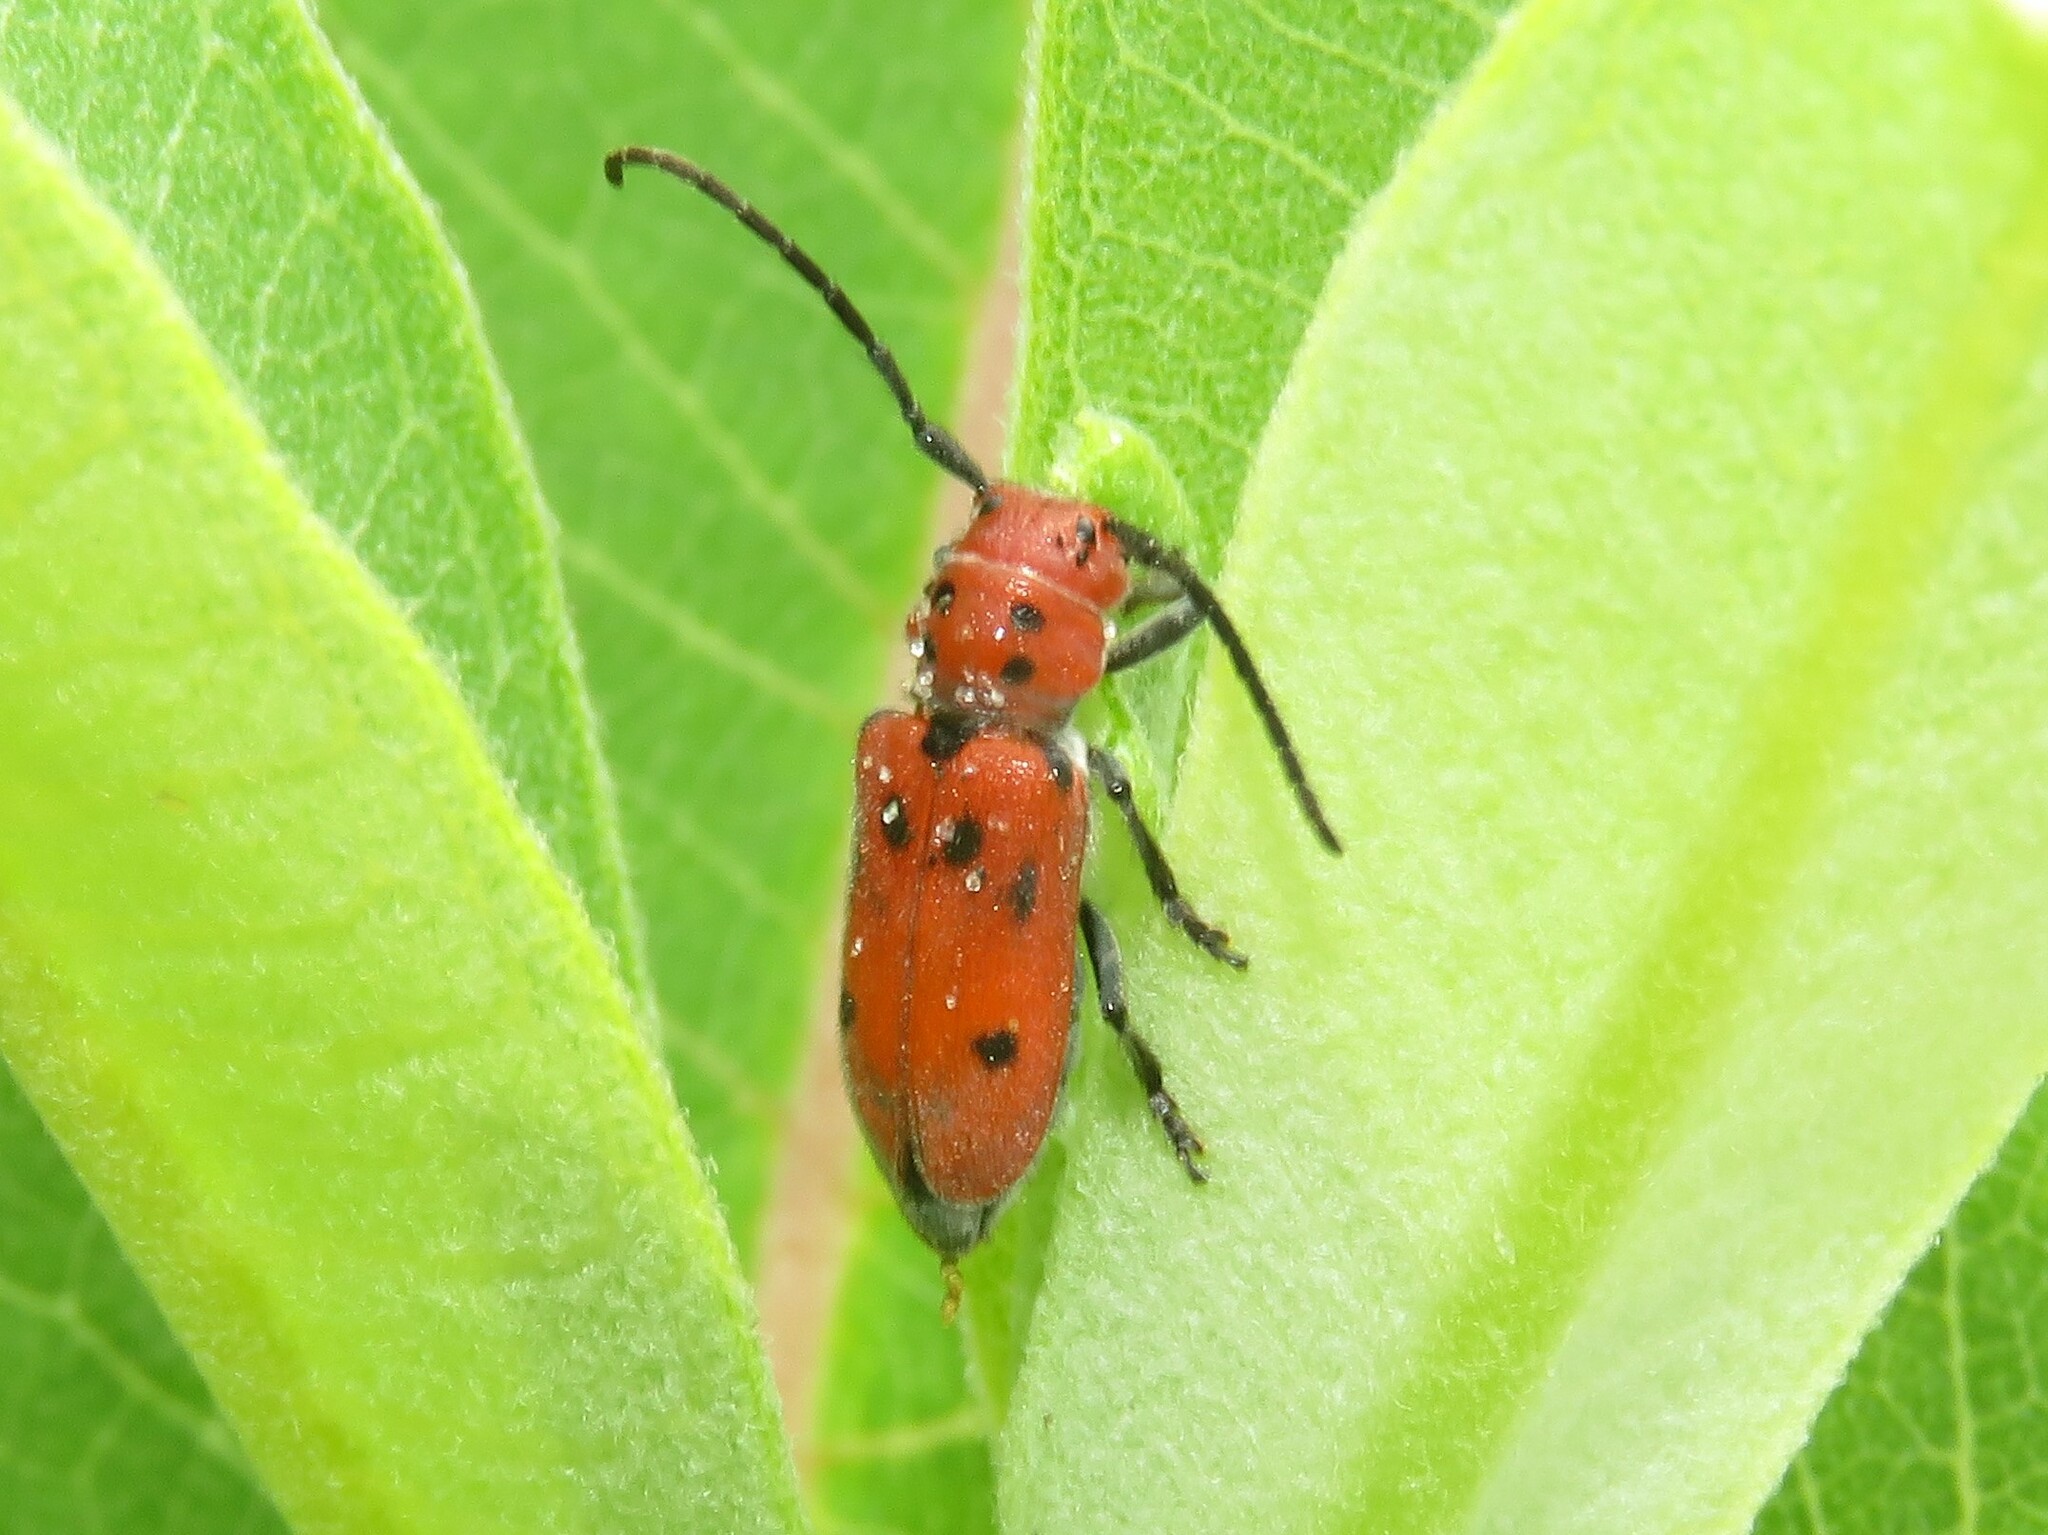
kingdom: Animalia
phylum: Arthropoda
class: Insecta
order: Coleoptera
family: Cerambycidae
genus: Tetraopes
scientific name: Tetraopes tetrophthalmus
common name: Red milkweed beetle
